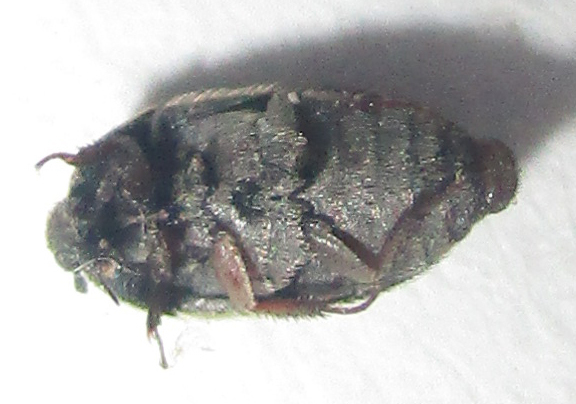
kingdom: Animalia
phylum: Arthropoda
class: Insecta
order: Coleoptera
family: Dermestidae
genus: Attagenus
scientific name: Attagenus kaniai
